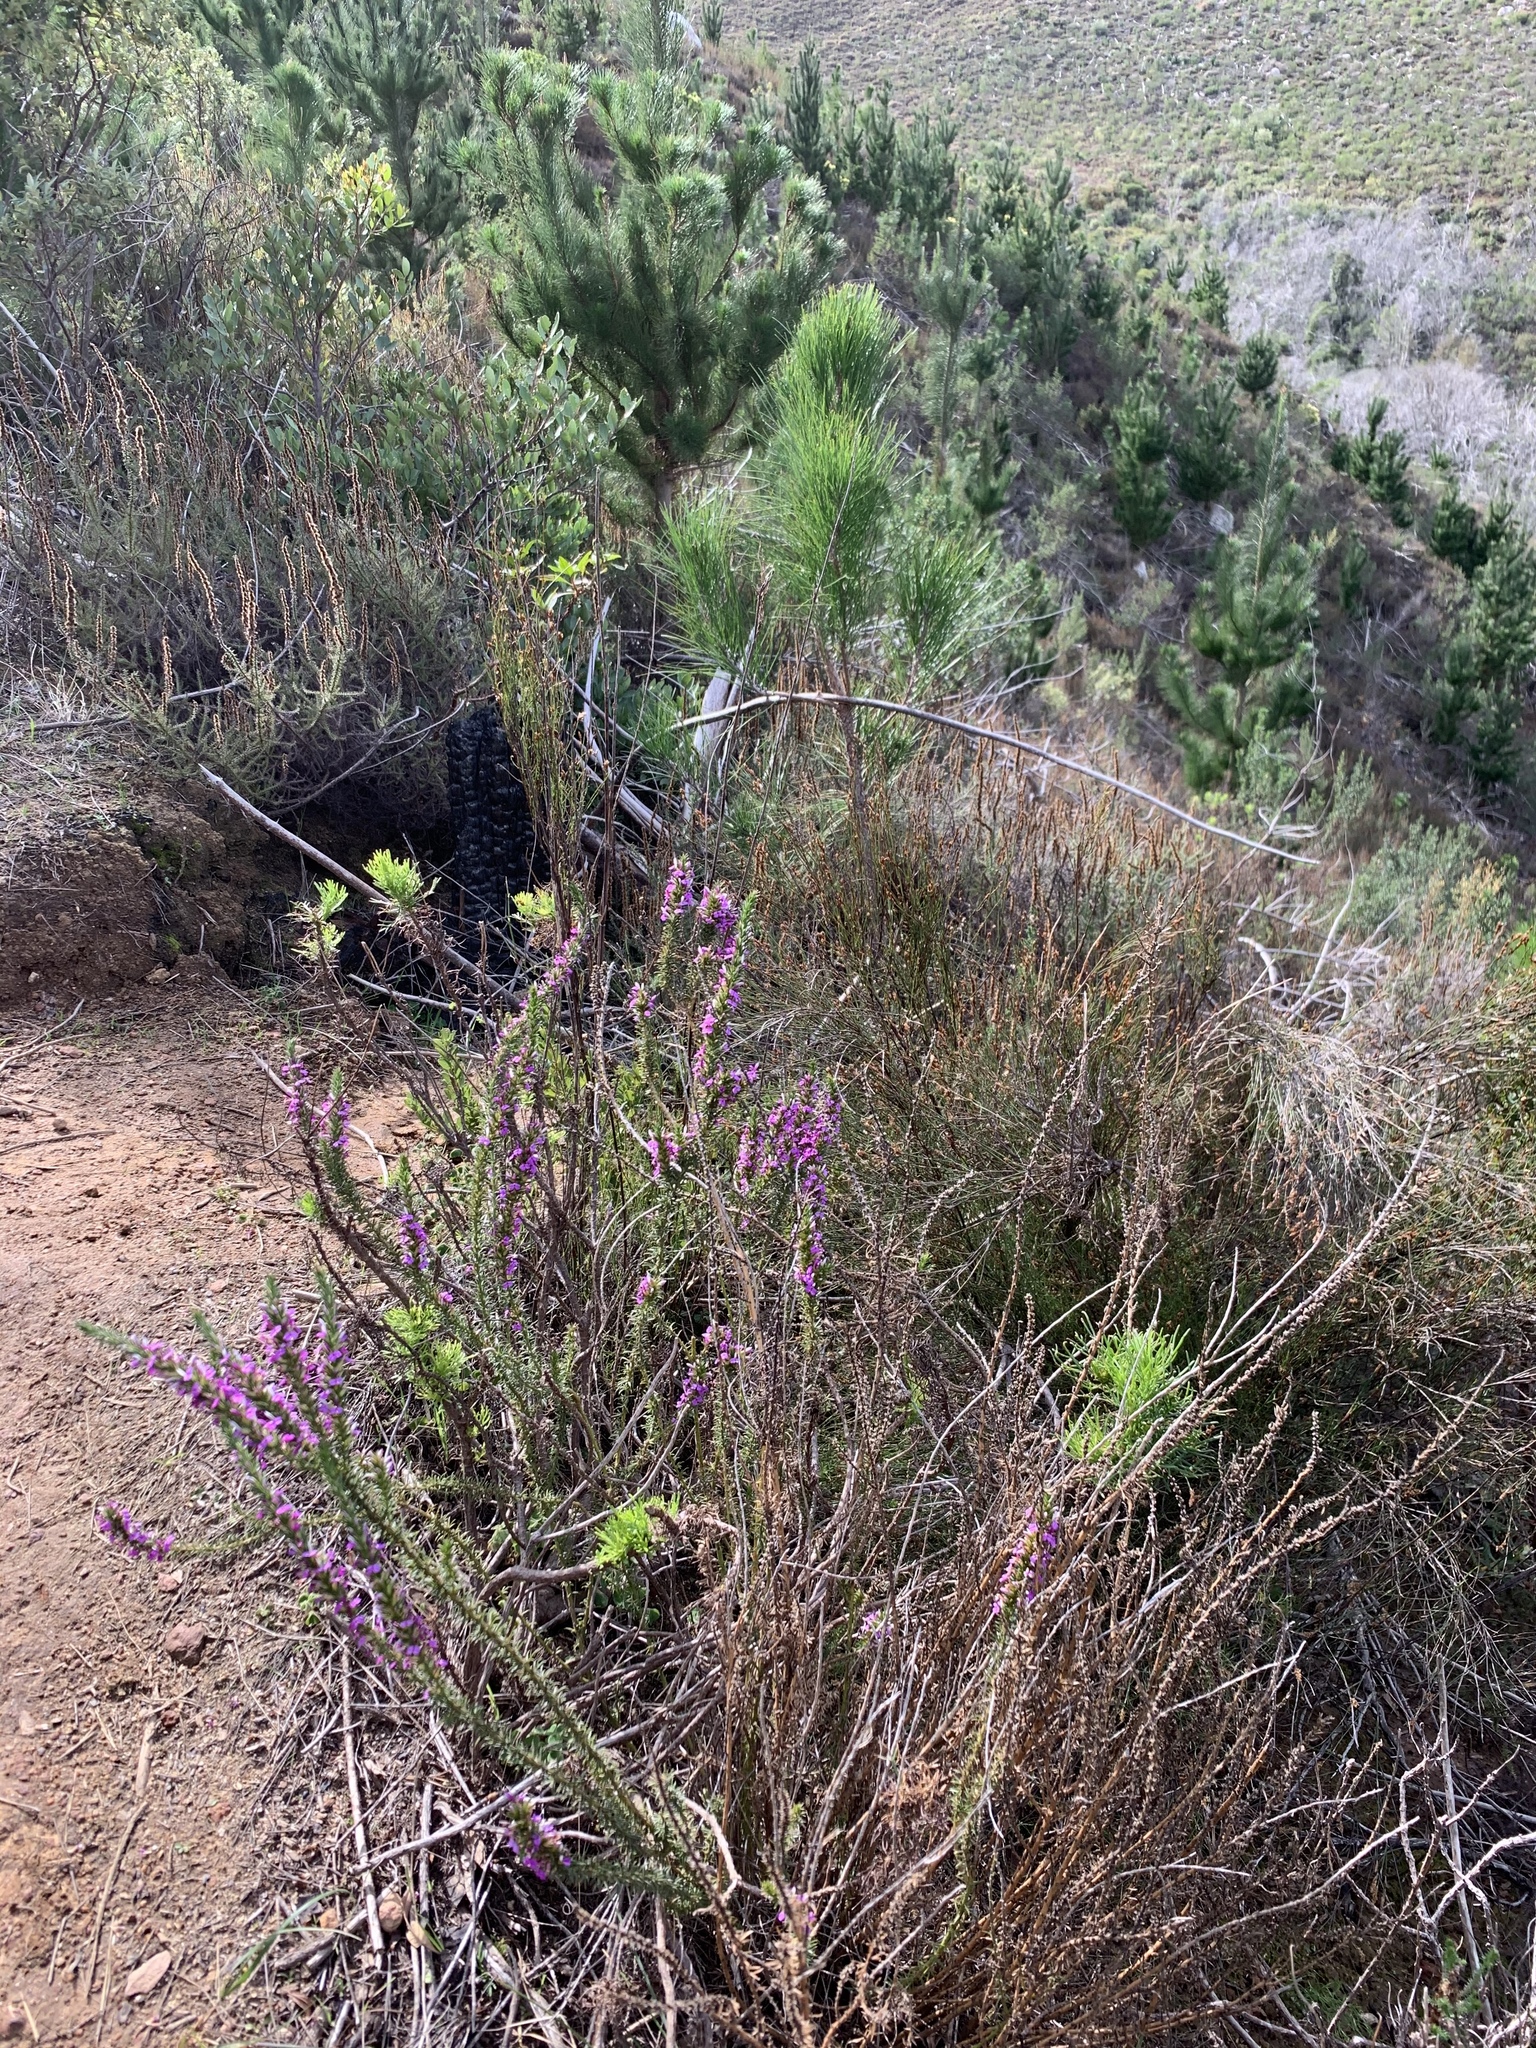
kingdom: Plantae
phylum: Tracheophyta
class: Magnoliopsida
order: Fabales
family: Polygalaceae
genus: Muraltia
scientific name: Muraltia heisteria
